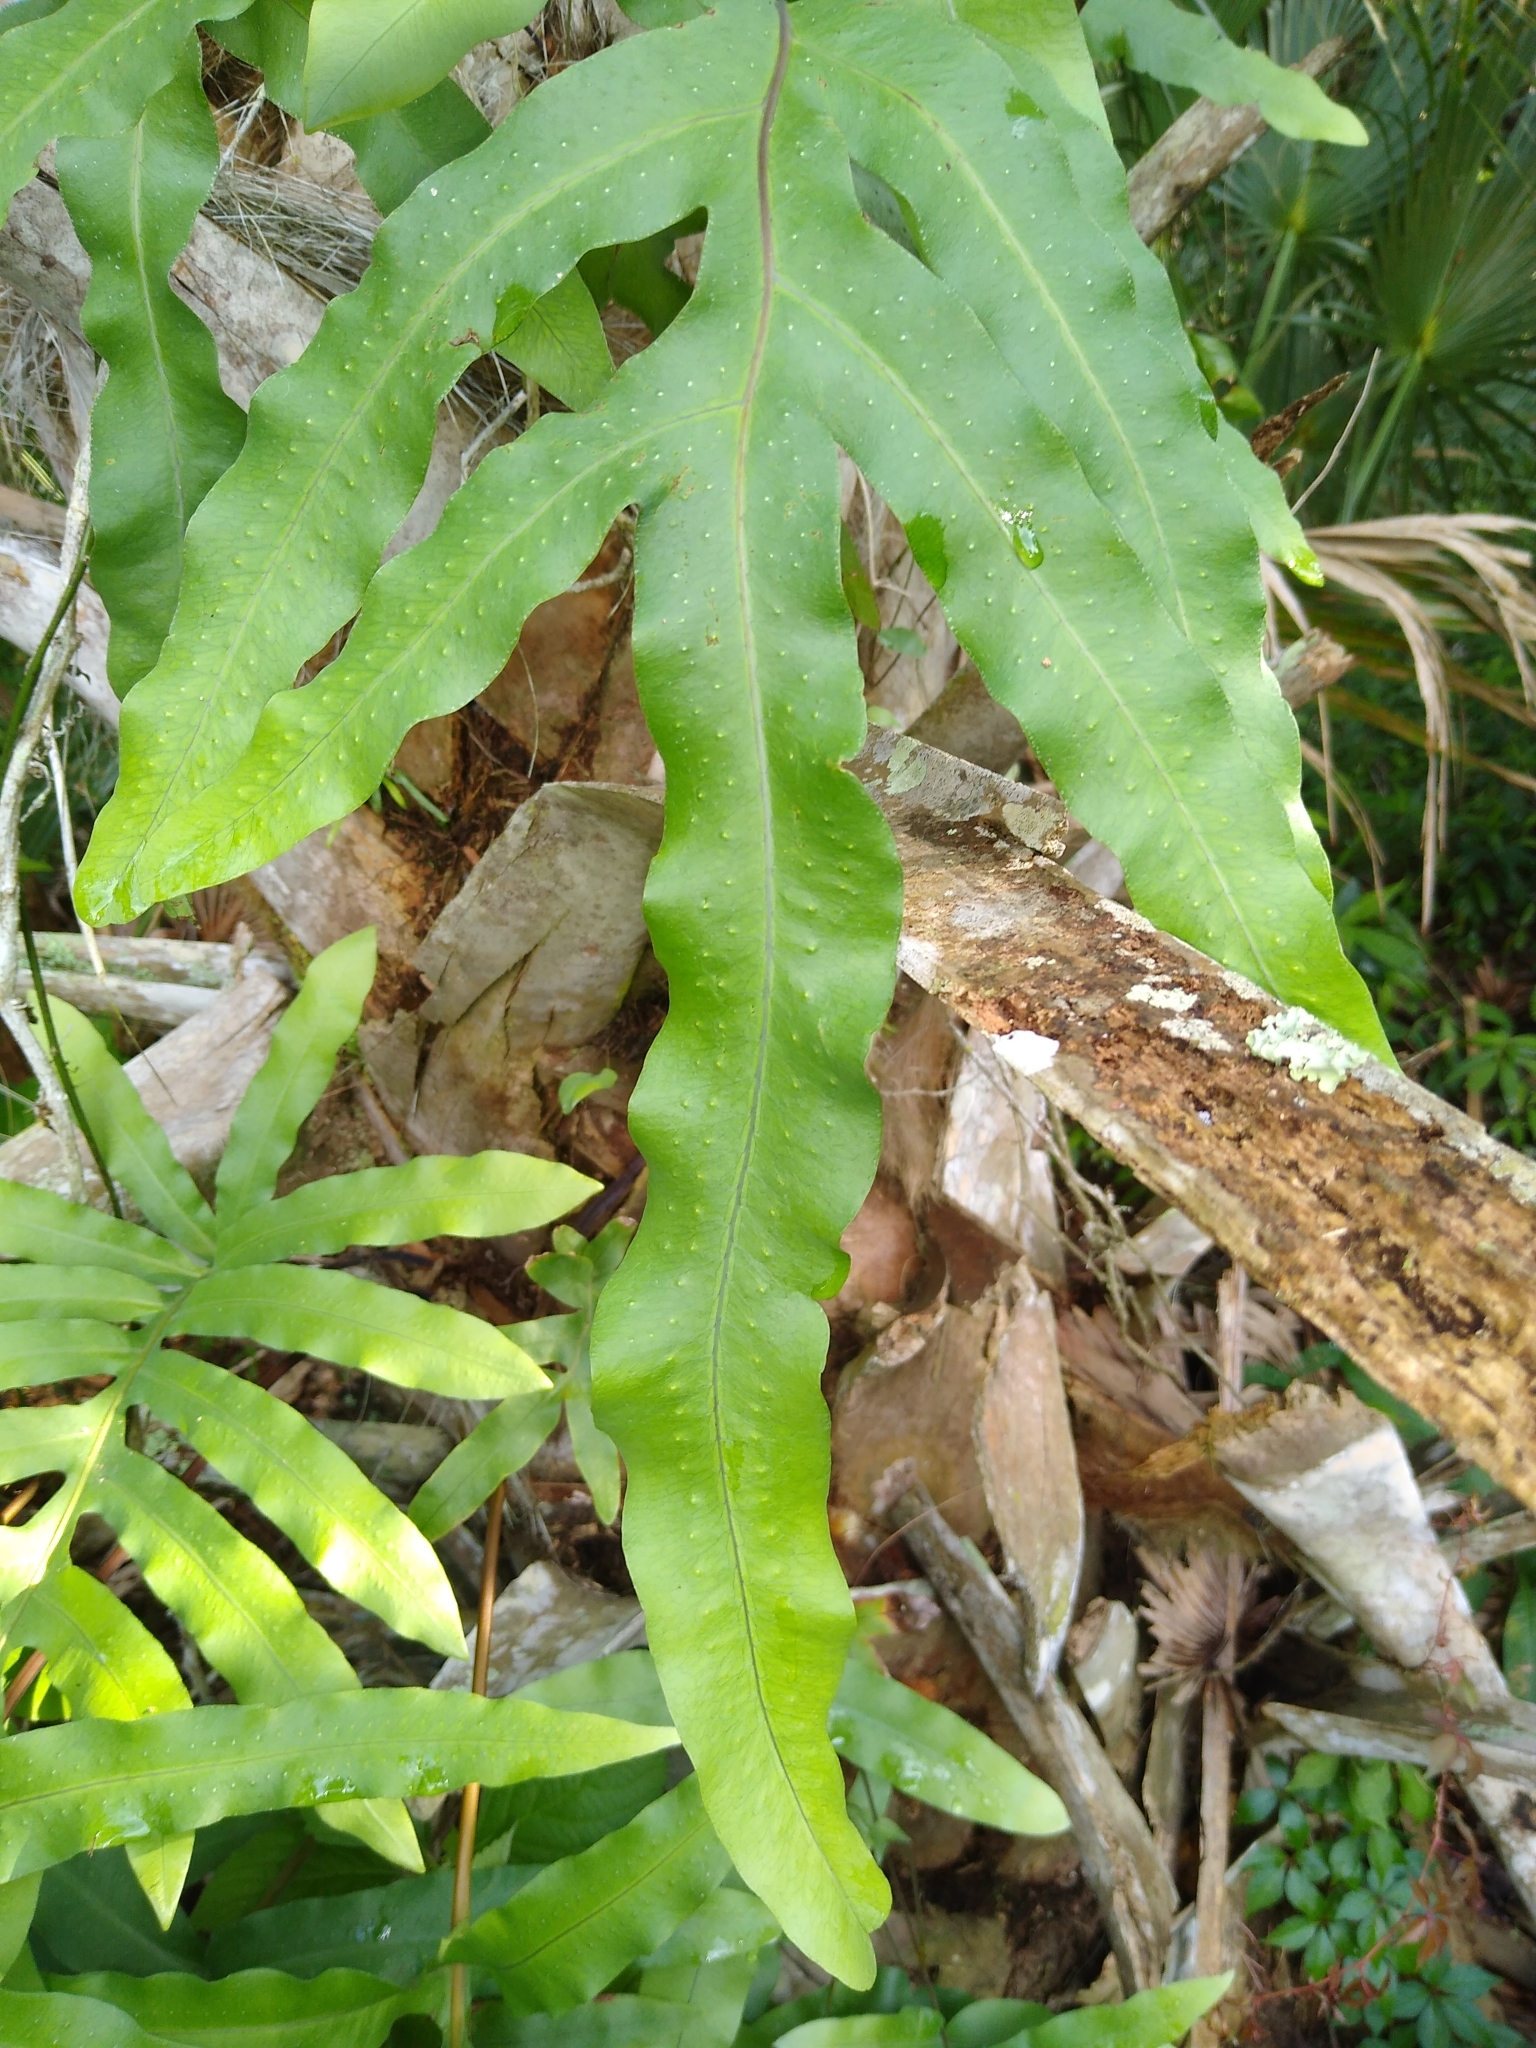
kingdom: Plantae
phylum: Tracheophyta
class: Polypodiopsida
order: Polypodiales
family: Polypodiaceae
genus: Phlebodium
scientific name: Phlebodium aureum
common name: Gold-foot fern
